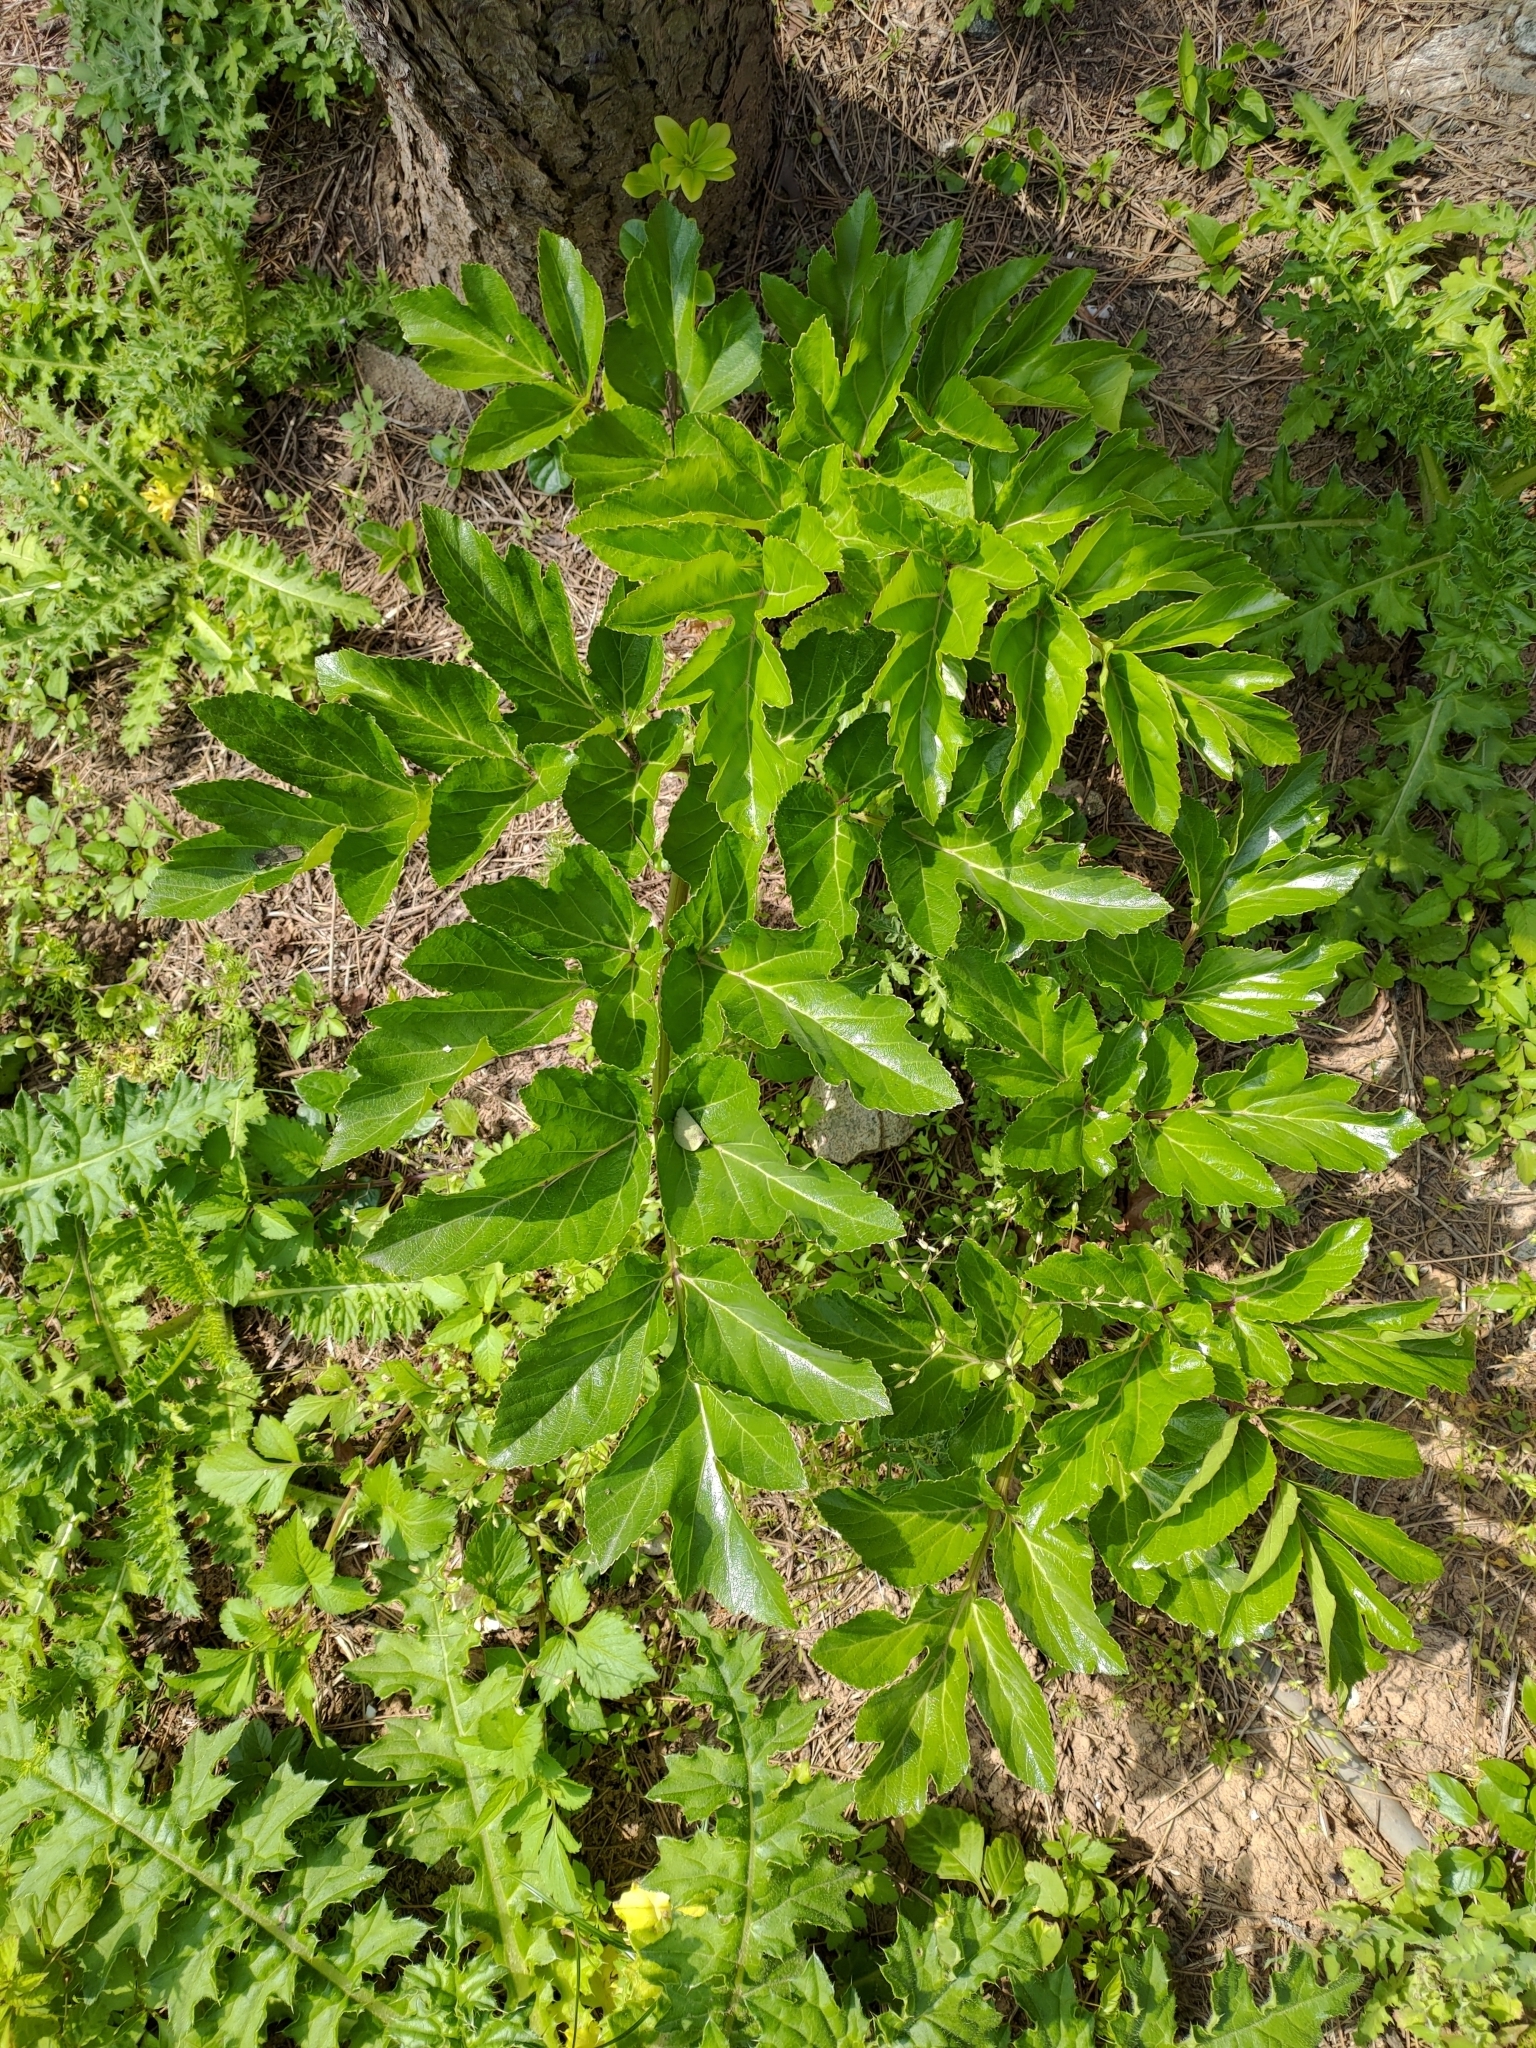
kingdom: Plantae
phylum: Tracheophyta
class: Magnoliopsida
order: Apiales
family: Apiaceae
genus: Angelica
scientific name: Angelica hirsutiflora
